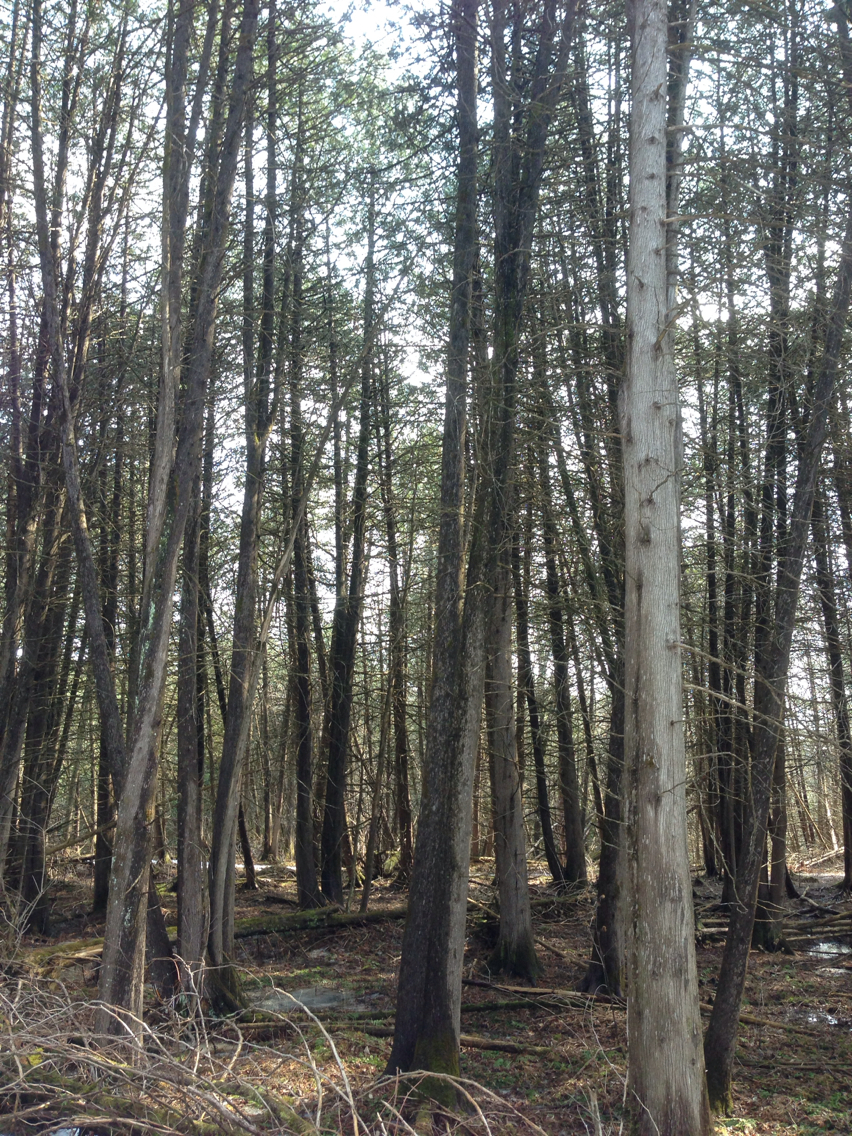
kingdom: Plantae
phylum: Tracheophyta
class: Pinopsida
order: Pinales
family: Cupressaceae
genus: Thuja
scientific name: Thuja occidentalis
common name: Northern white-cedar
